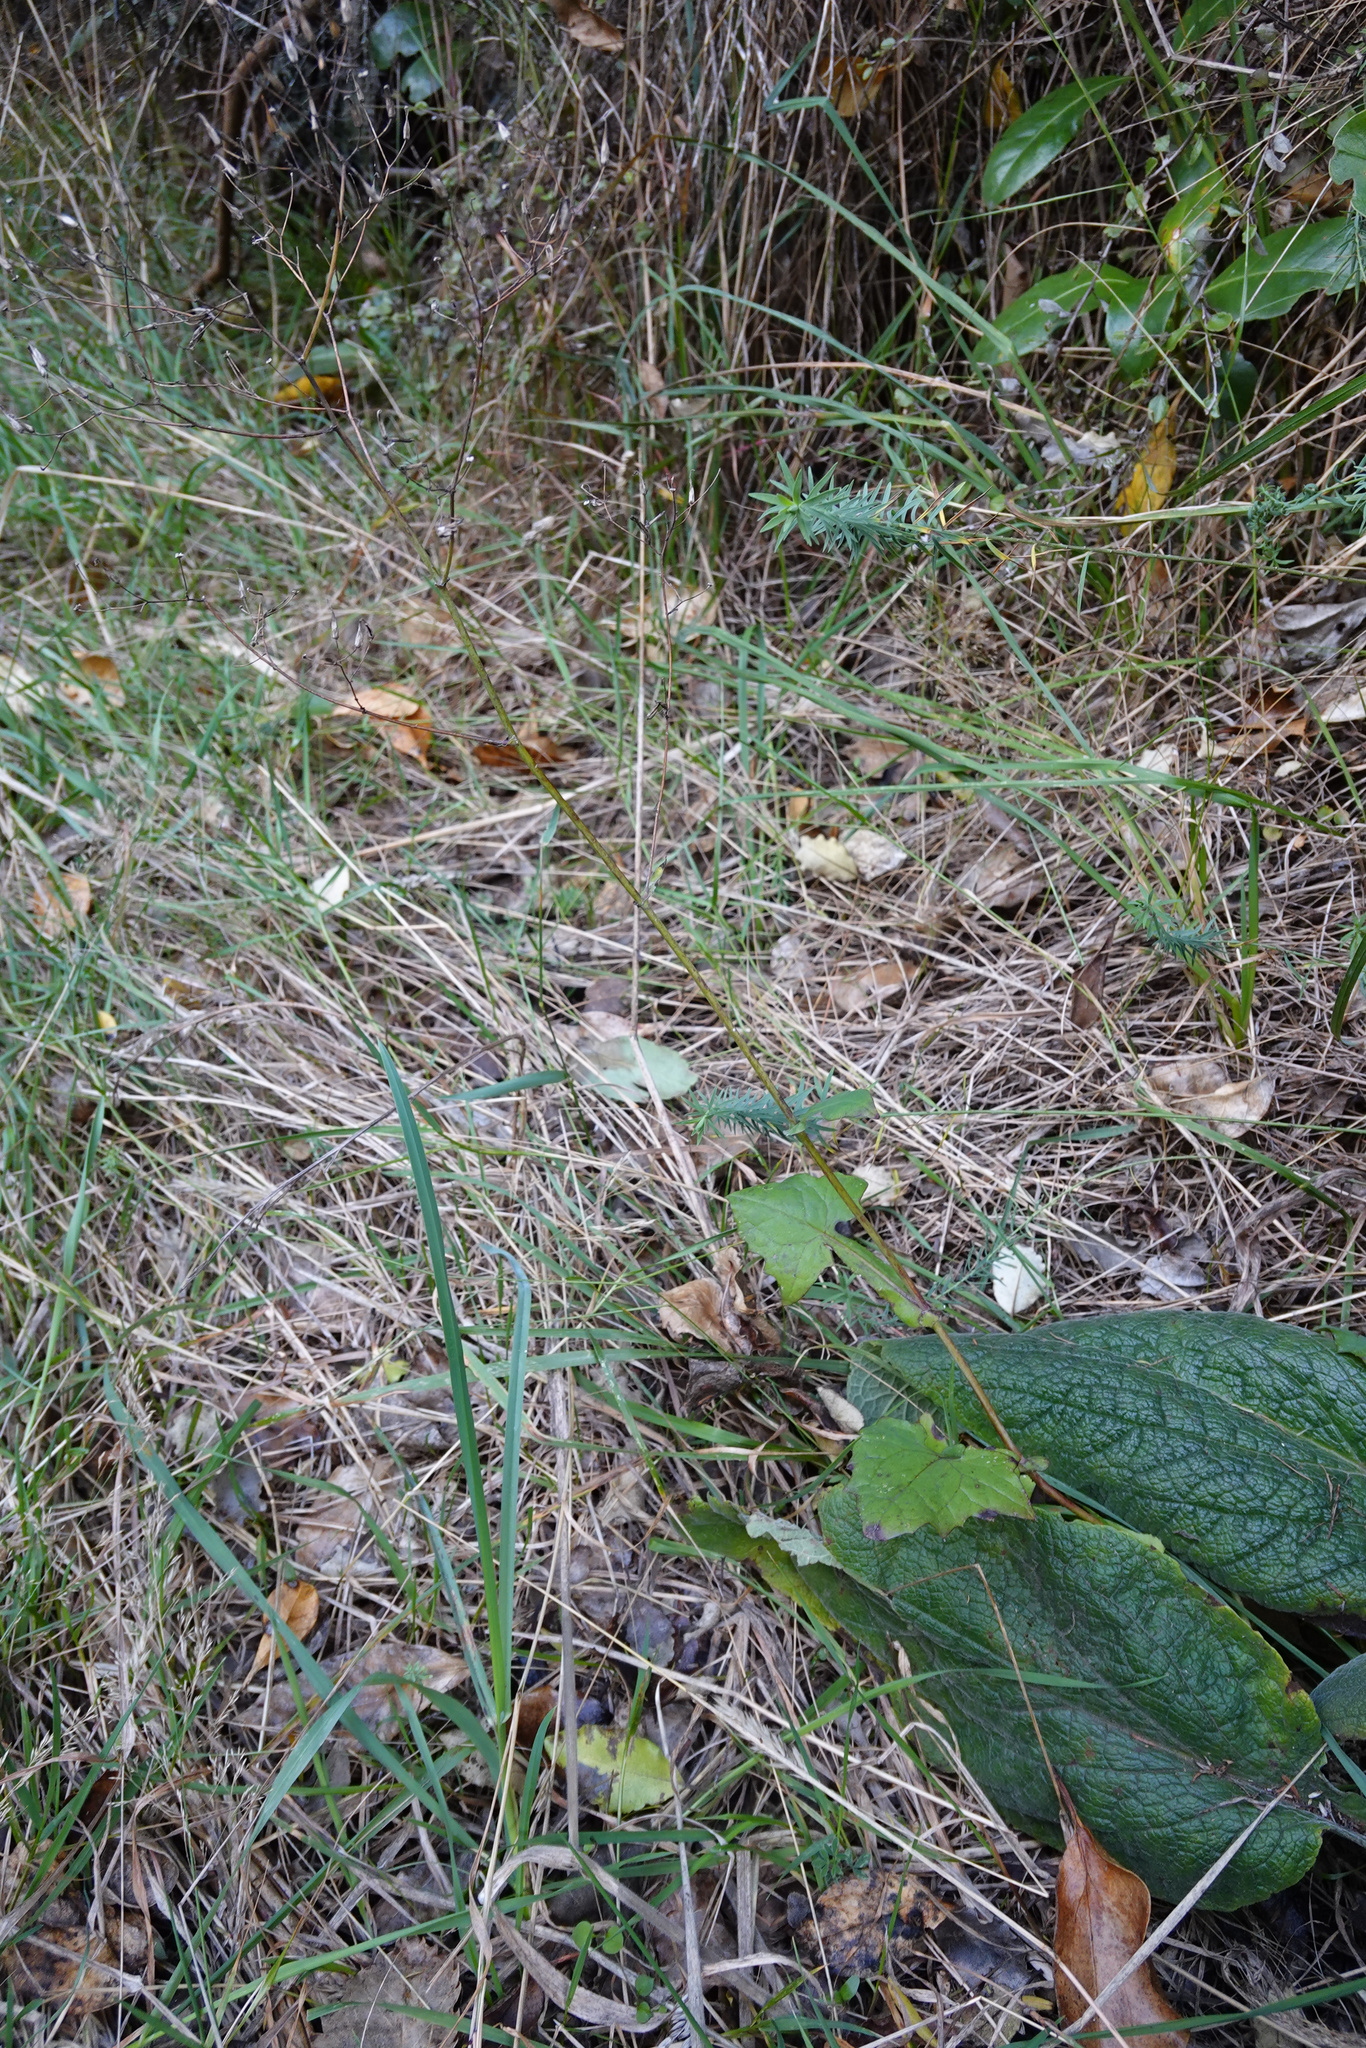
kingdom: Plantae
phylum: Tracheophyta
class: Magnoliopsida
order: Asterales
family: Asteraceae
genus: Mycelis
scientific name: Mycelis muralis
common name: Wall lettuce
